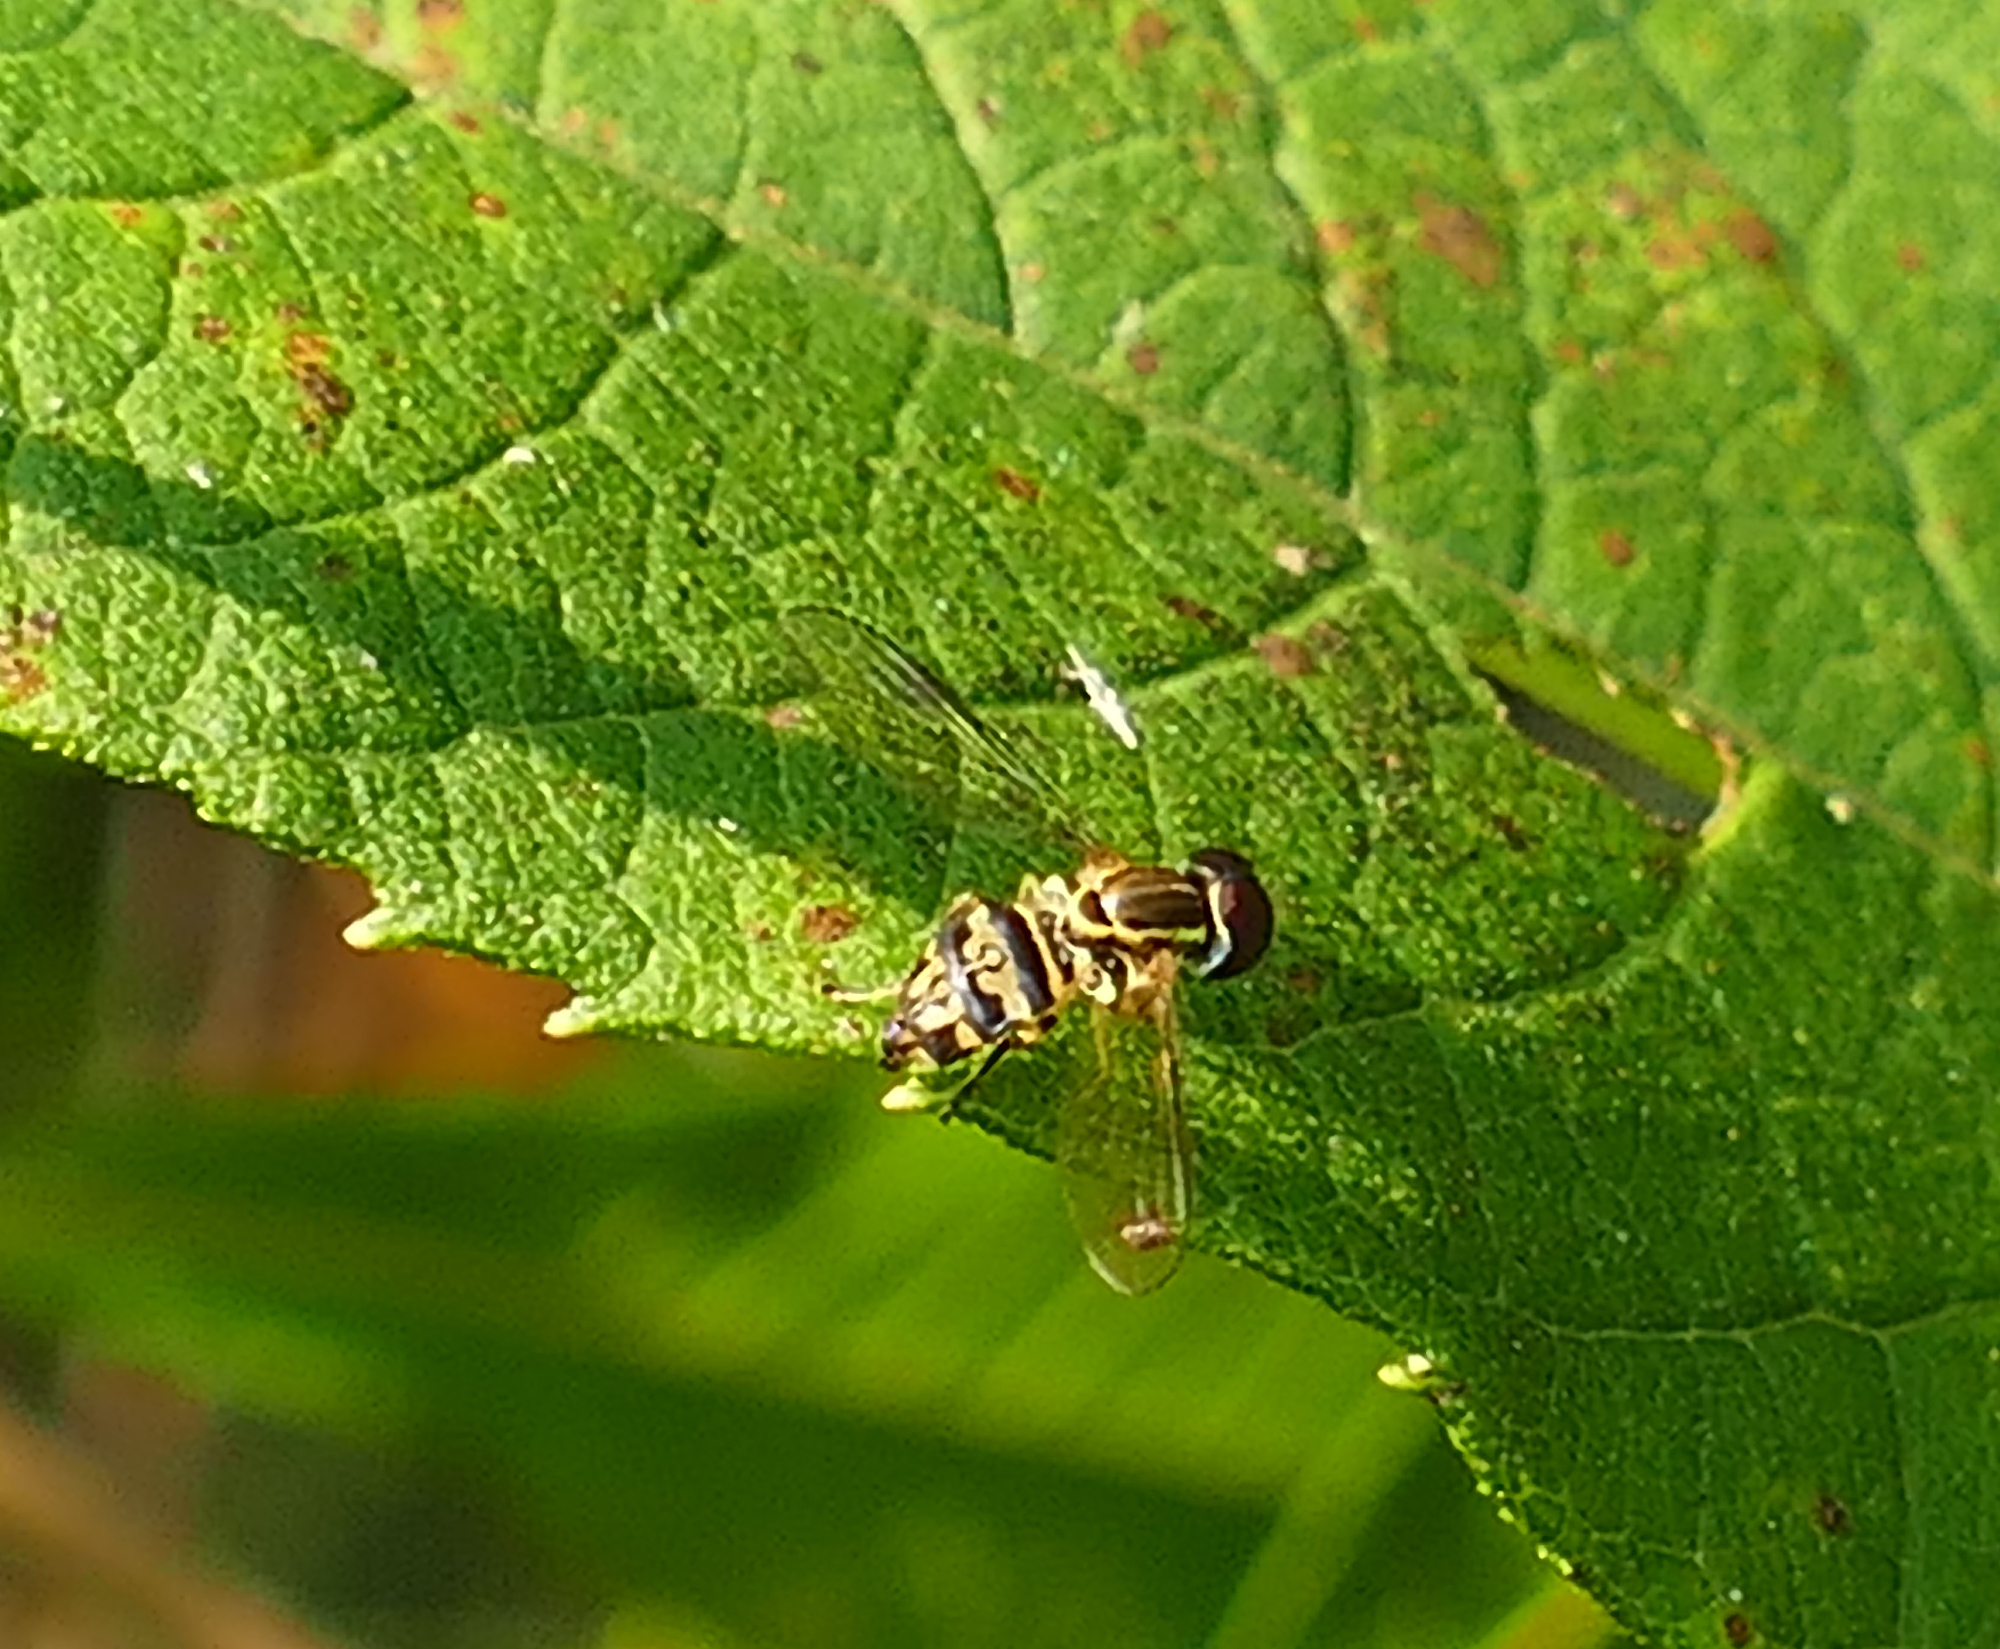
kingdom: Animalia
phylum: Arthropoda
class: Insecta
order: Diptera
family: Syrphidae
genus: Toxomerus
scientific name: Toxomerus geminatus
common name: Eastern calligrapher
